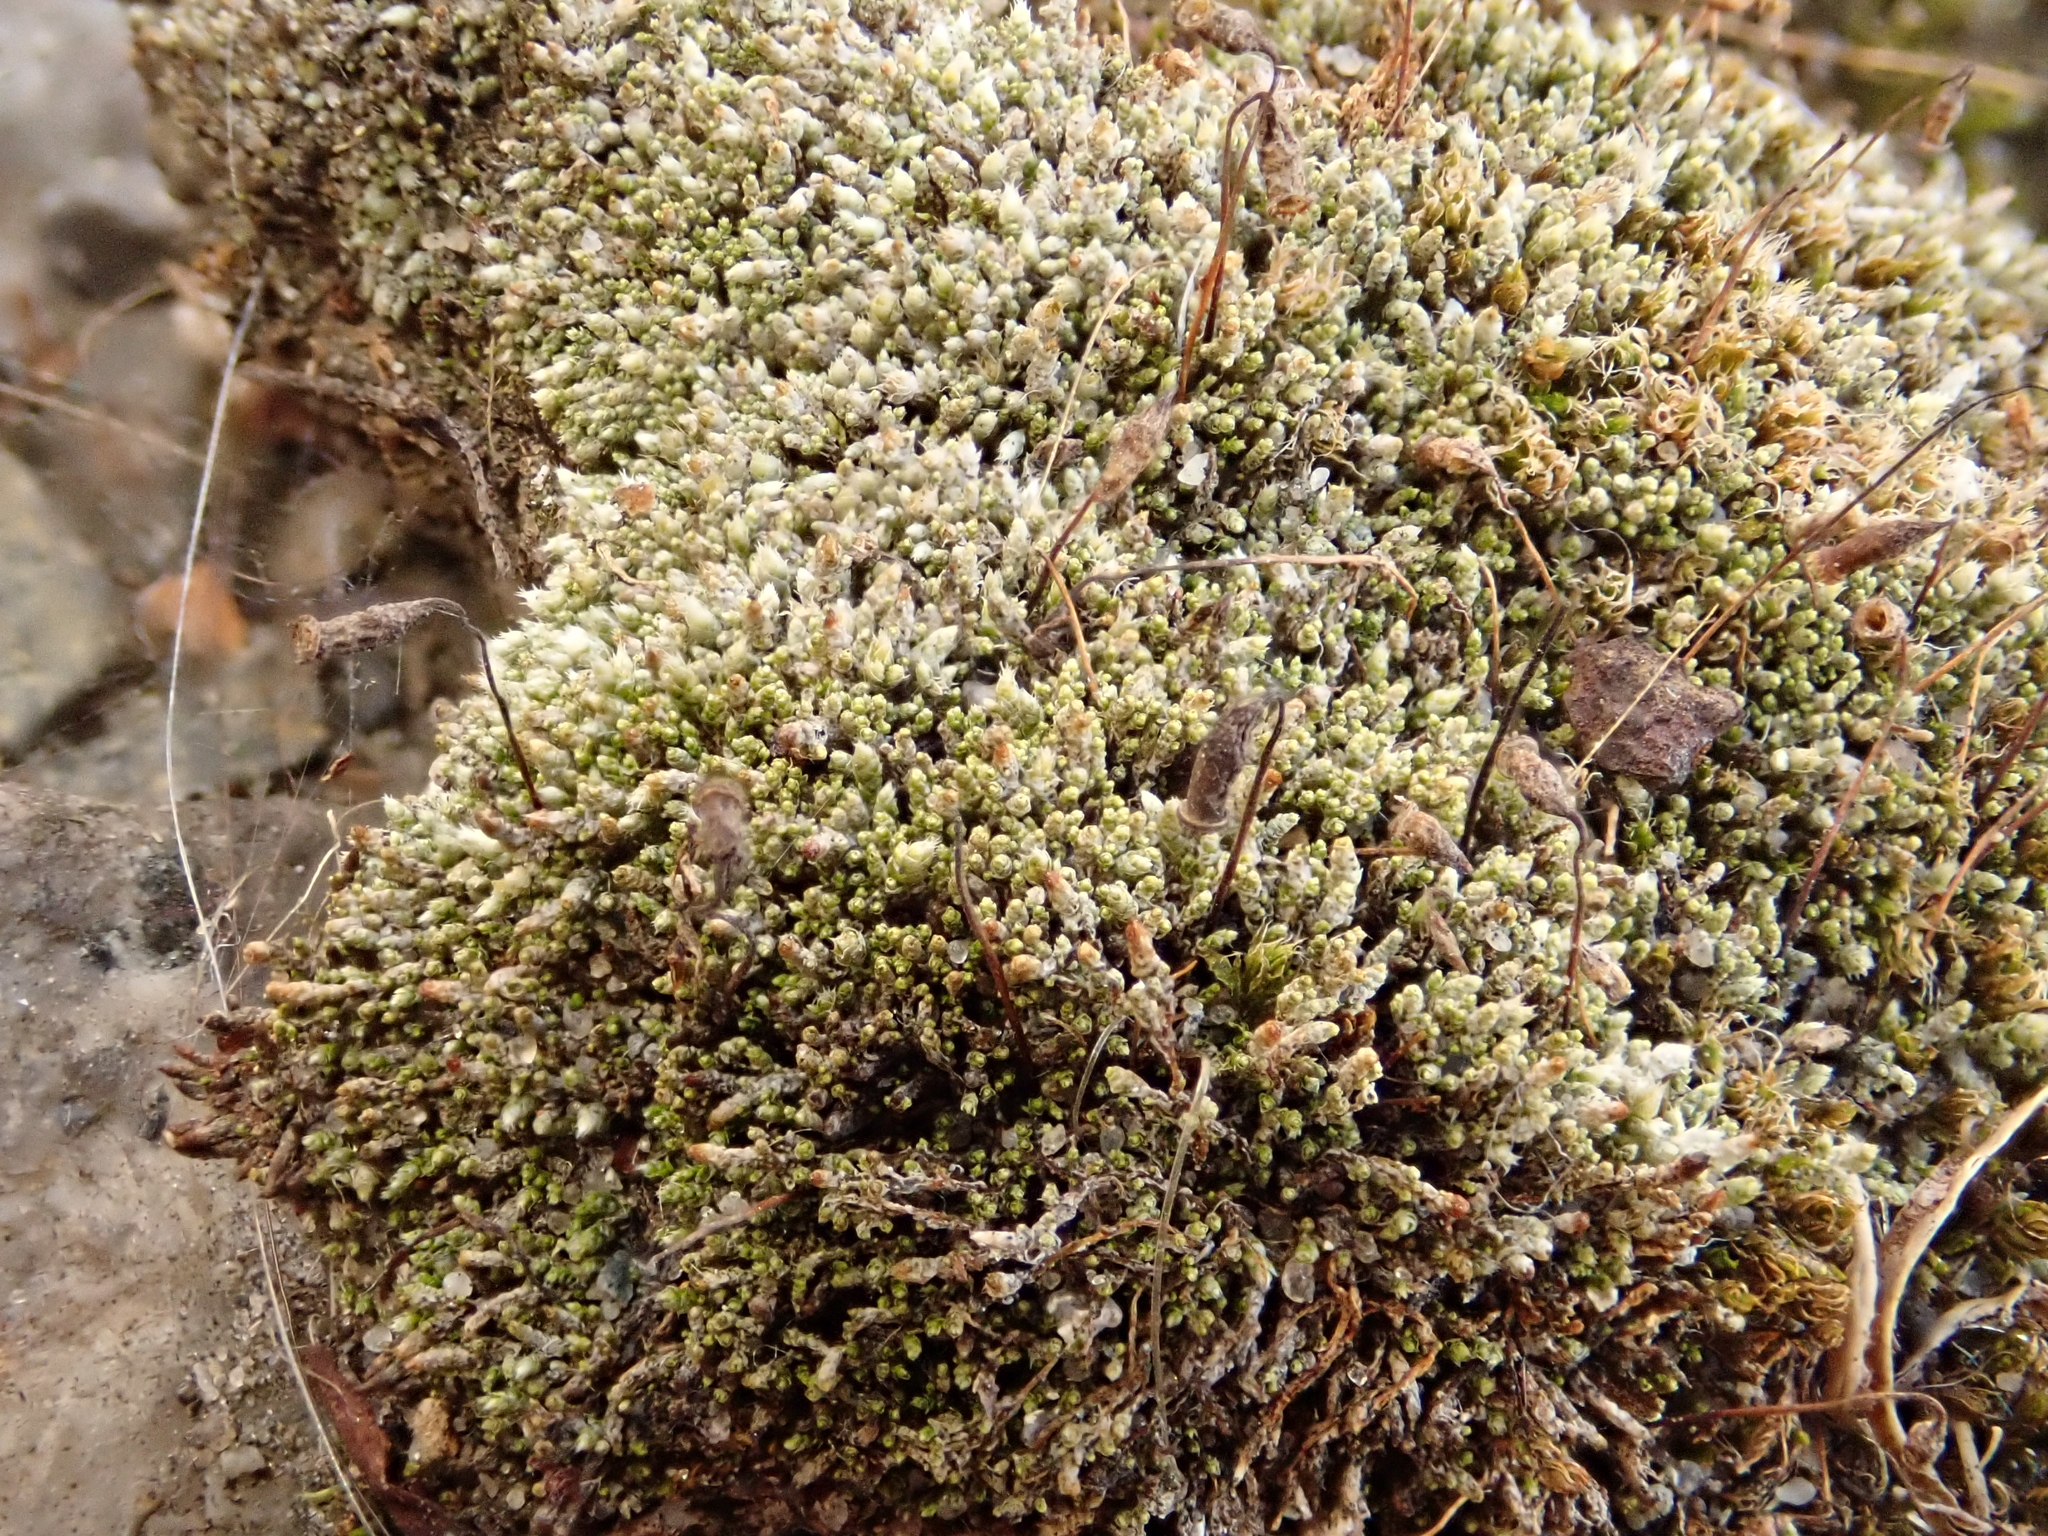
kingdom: Plantae
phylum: Bryophyta
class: Bryopsida
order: Bryales
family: Bryaceae
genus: Bryum
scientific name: Bryum argenteum
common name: Silver-moss
